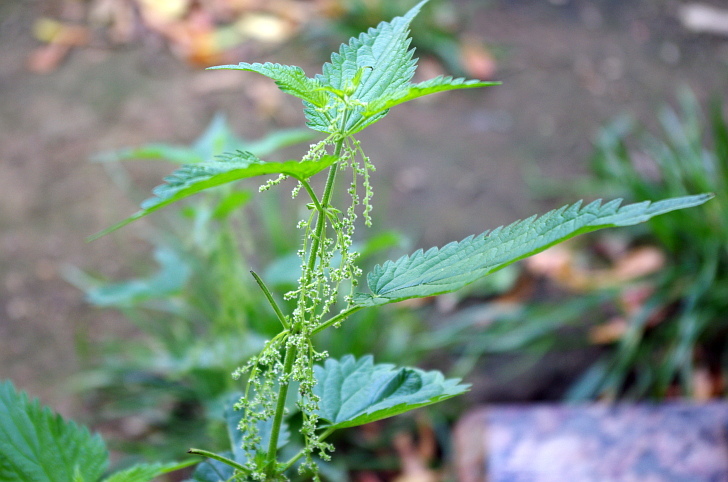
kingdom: Plantae
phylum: Tracheophyta
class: Magnoliopsida
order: Rosales
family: Urticaceae
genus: Urtica
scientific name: Urtica dioica
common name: Common nettle
